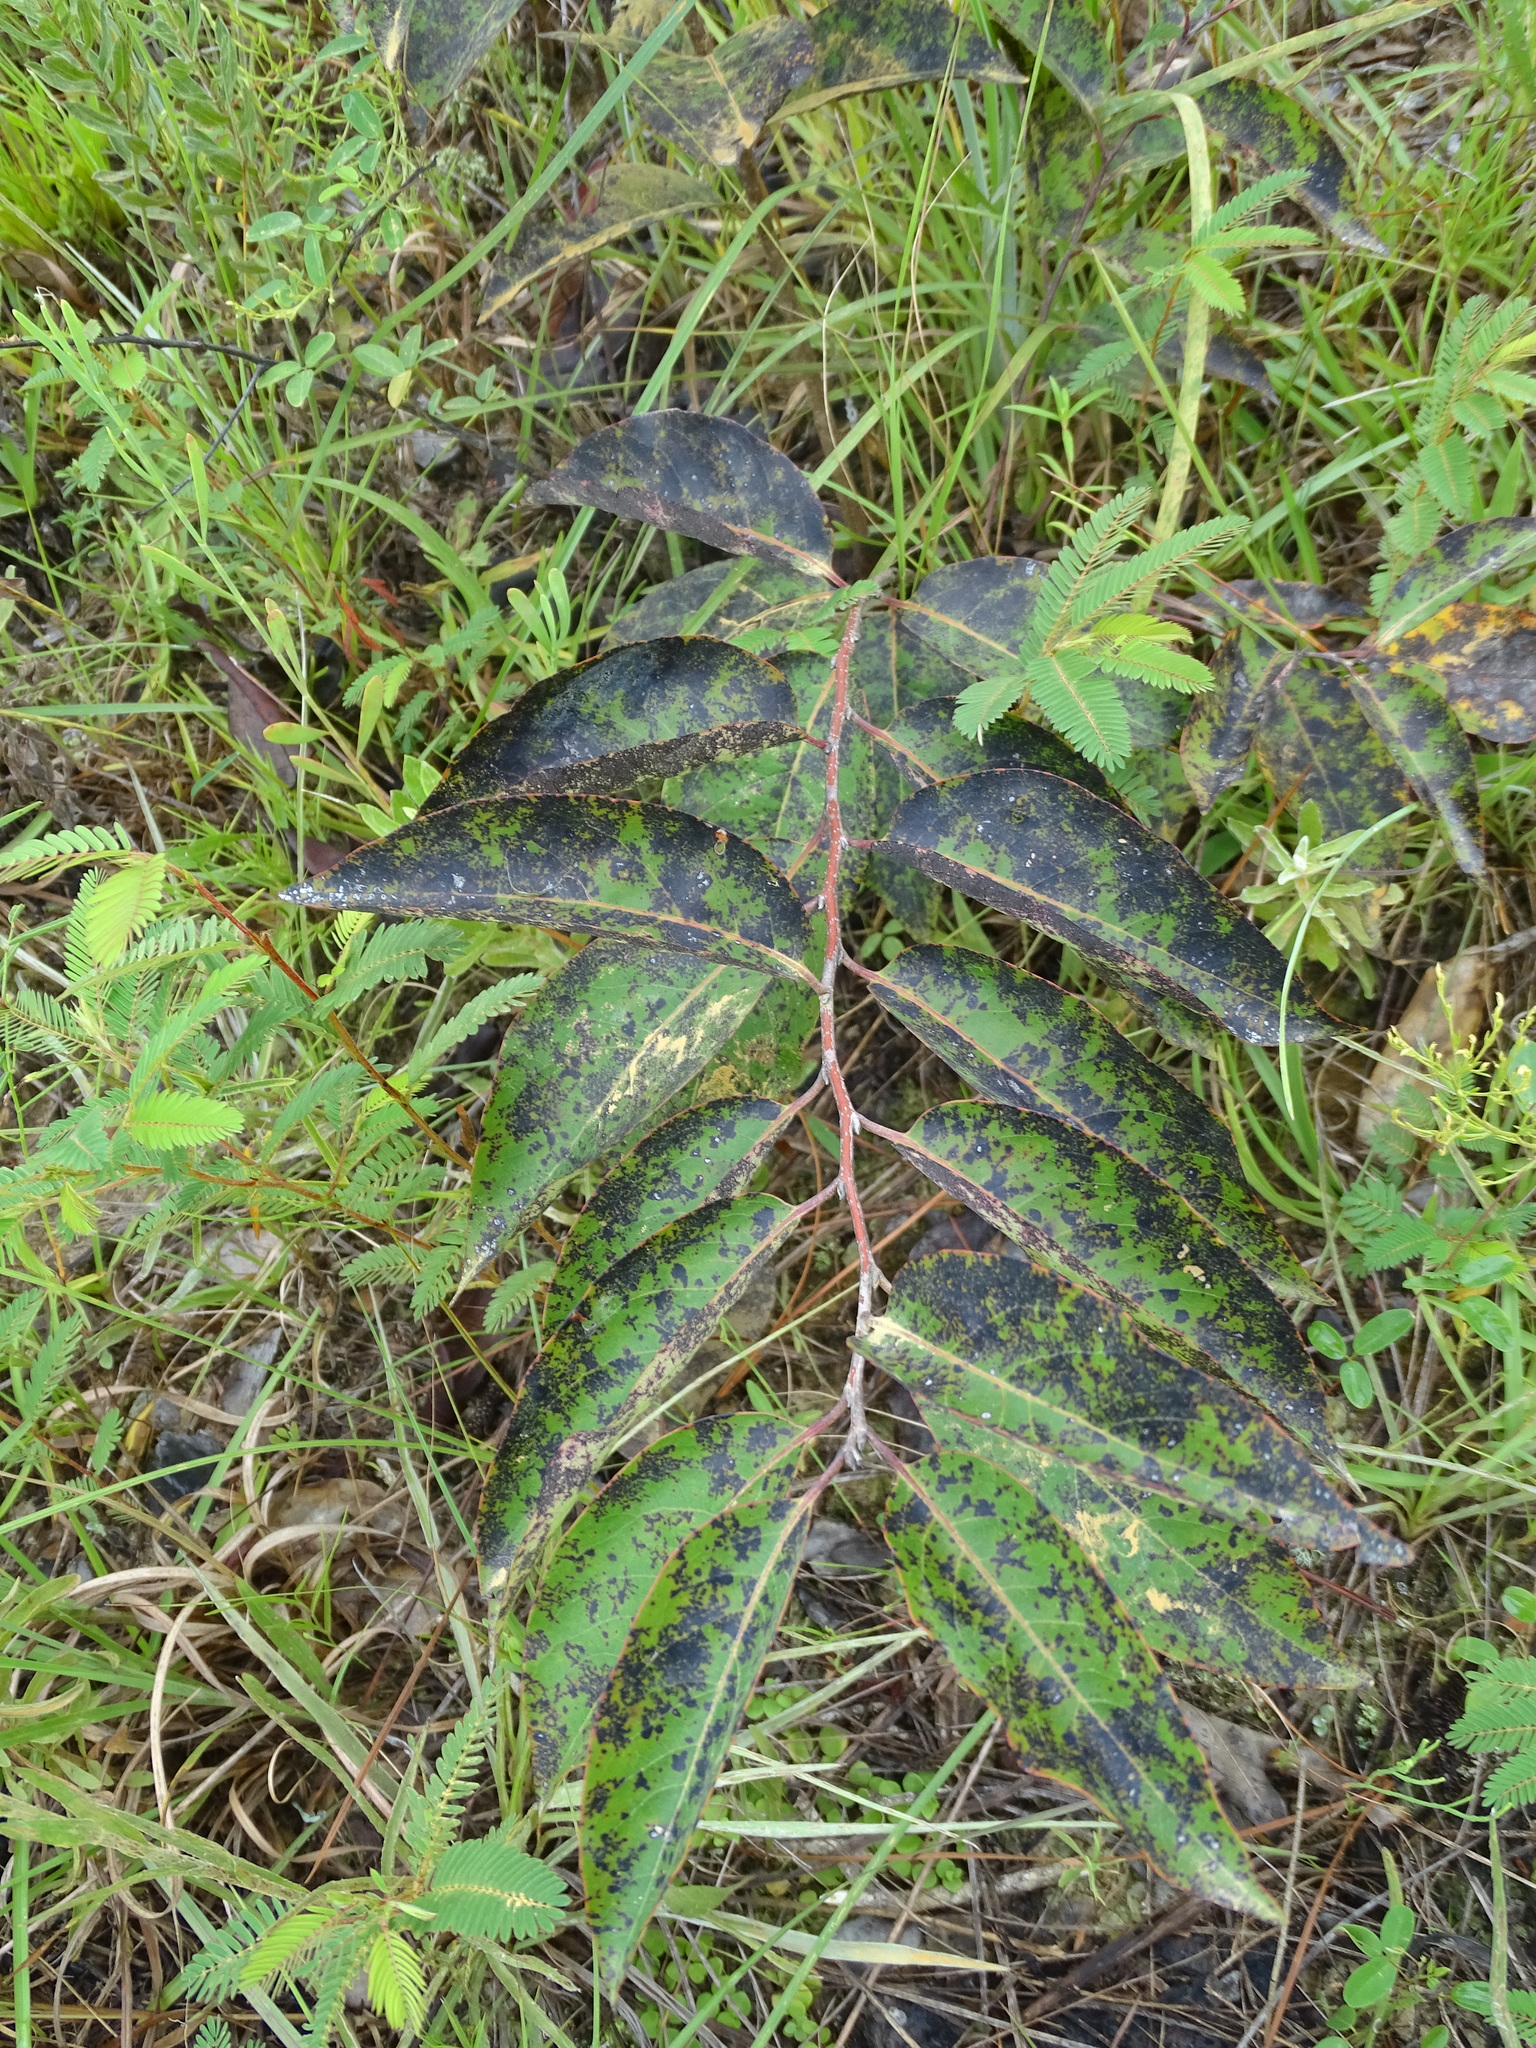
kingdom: Plantae
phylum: Tracheophyta
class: Magnoliopsida
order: Ericales
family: Ebenaceae
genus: Diospyros
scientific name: Diospyros virginiana
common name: Persimmon
